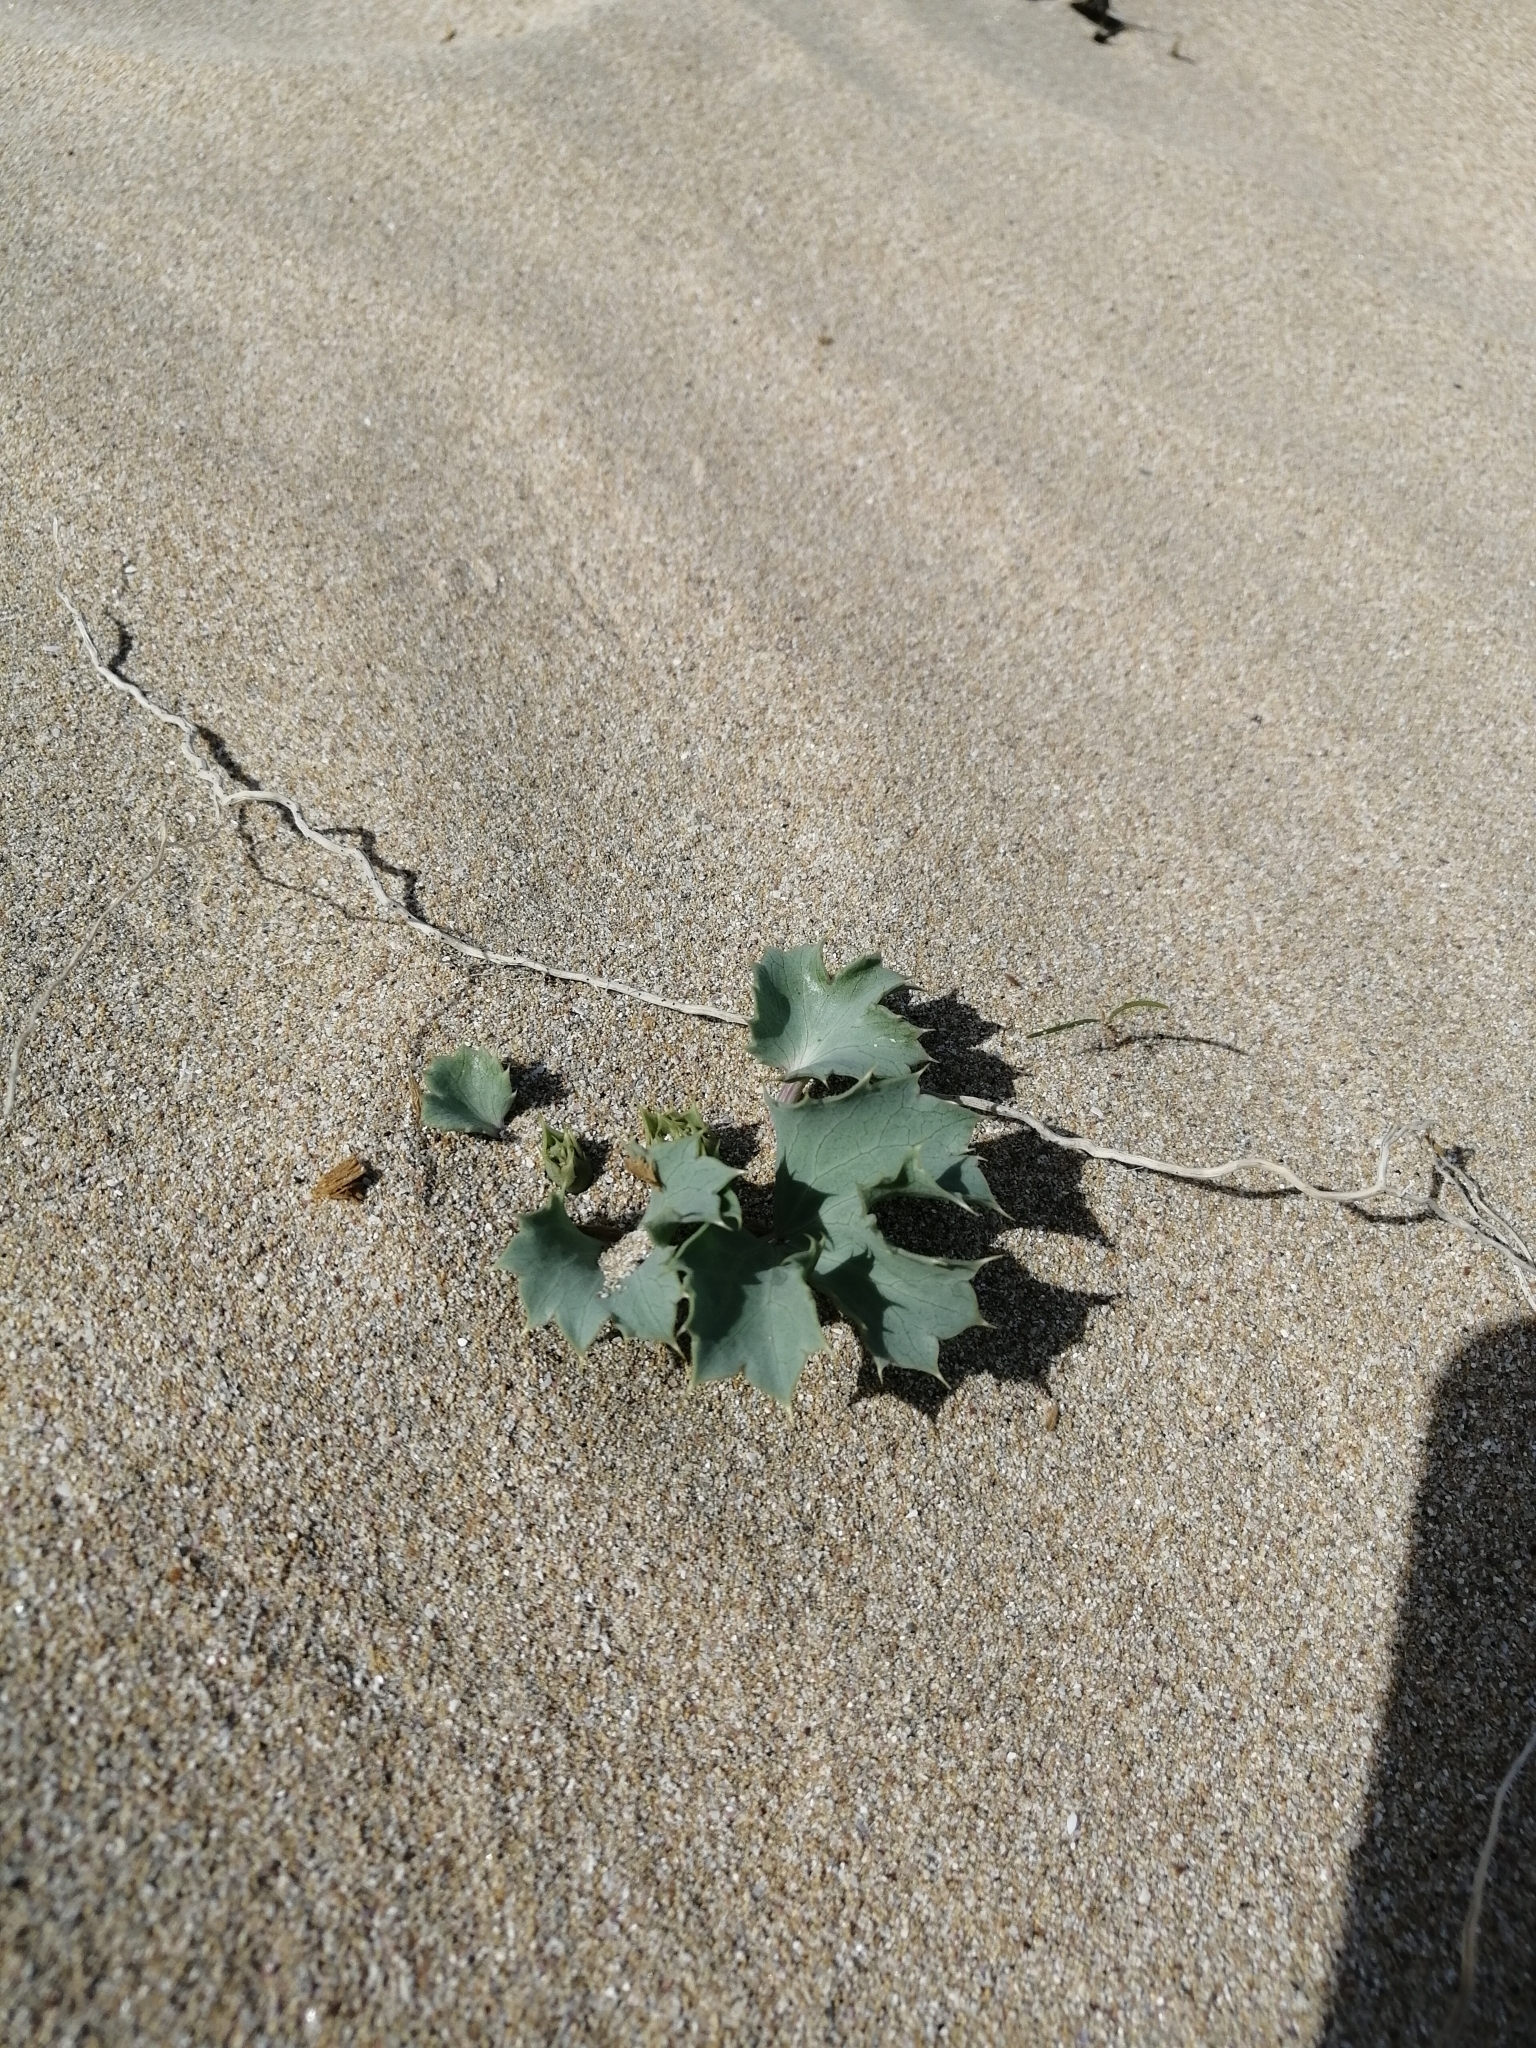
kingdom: Plantae
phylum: Tracheophyta
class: Magnoliopsida
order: Apiales
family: Apiaceae
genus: Eryngium
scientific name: Eryngium maritimum
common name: Sea-holly
